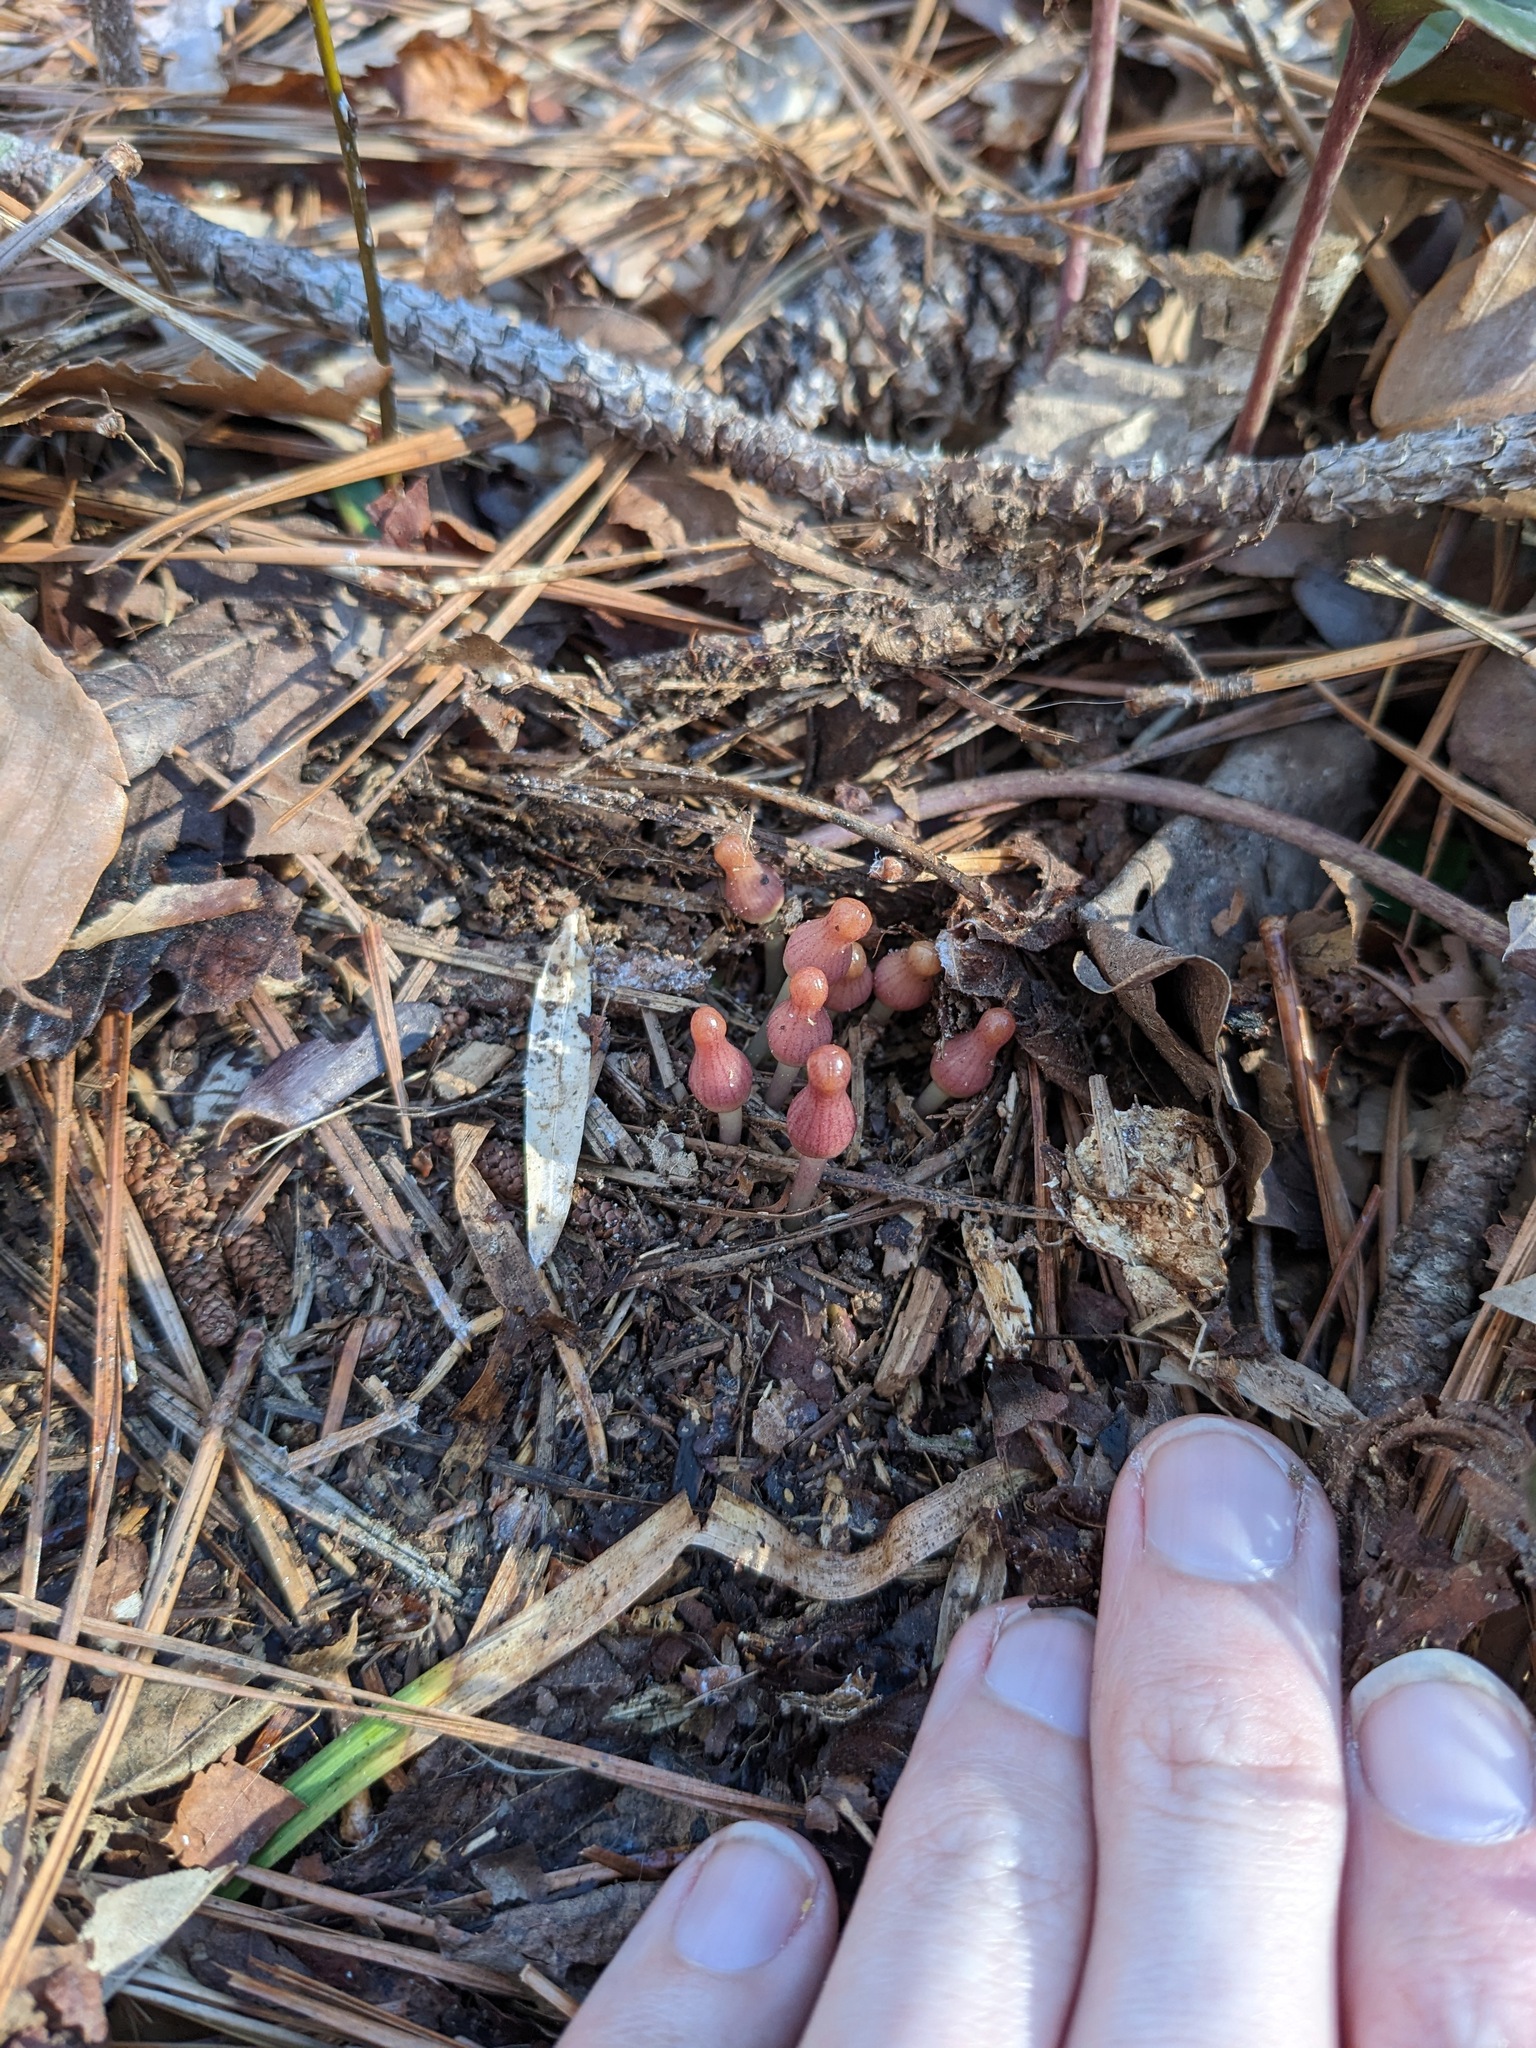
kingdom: Plantae
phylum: Tracheophyta
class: Magnoliopsida
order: Piperales
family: Aristolochiaceae
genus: Hexastylis
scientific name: Hexastylis arifolia
